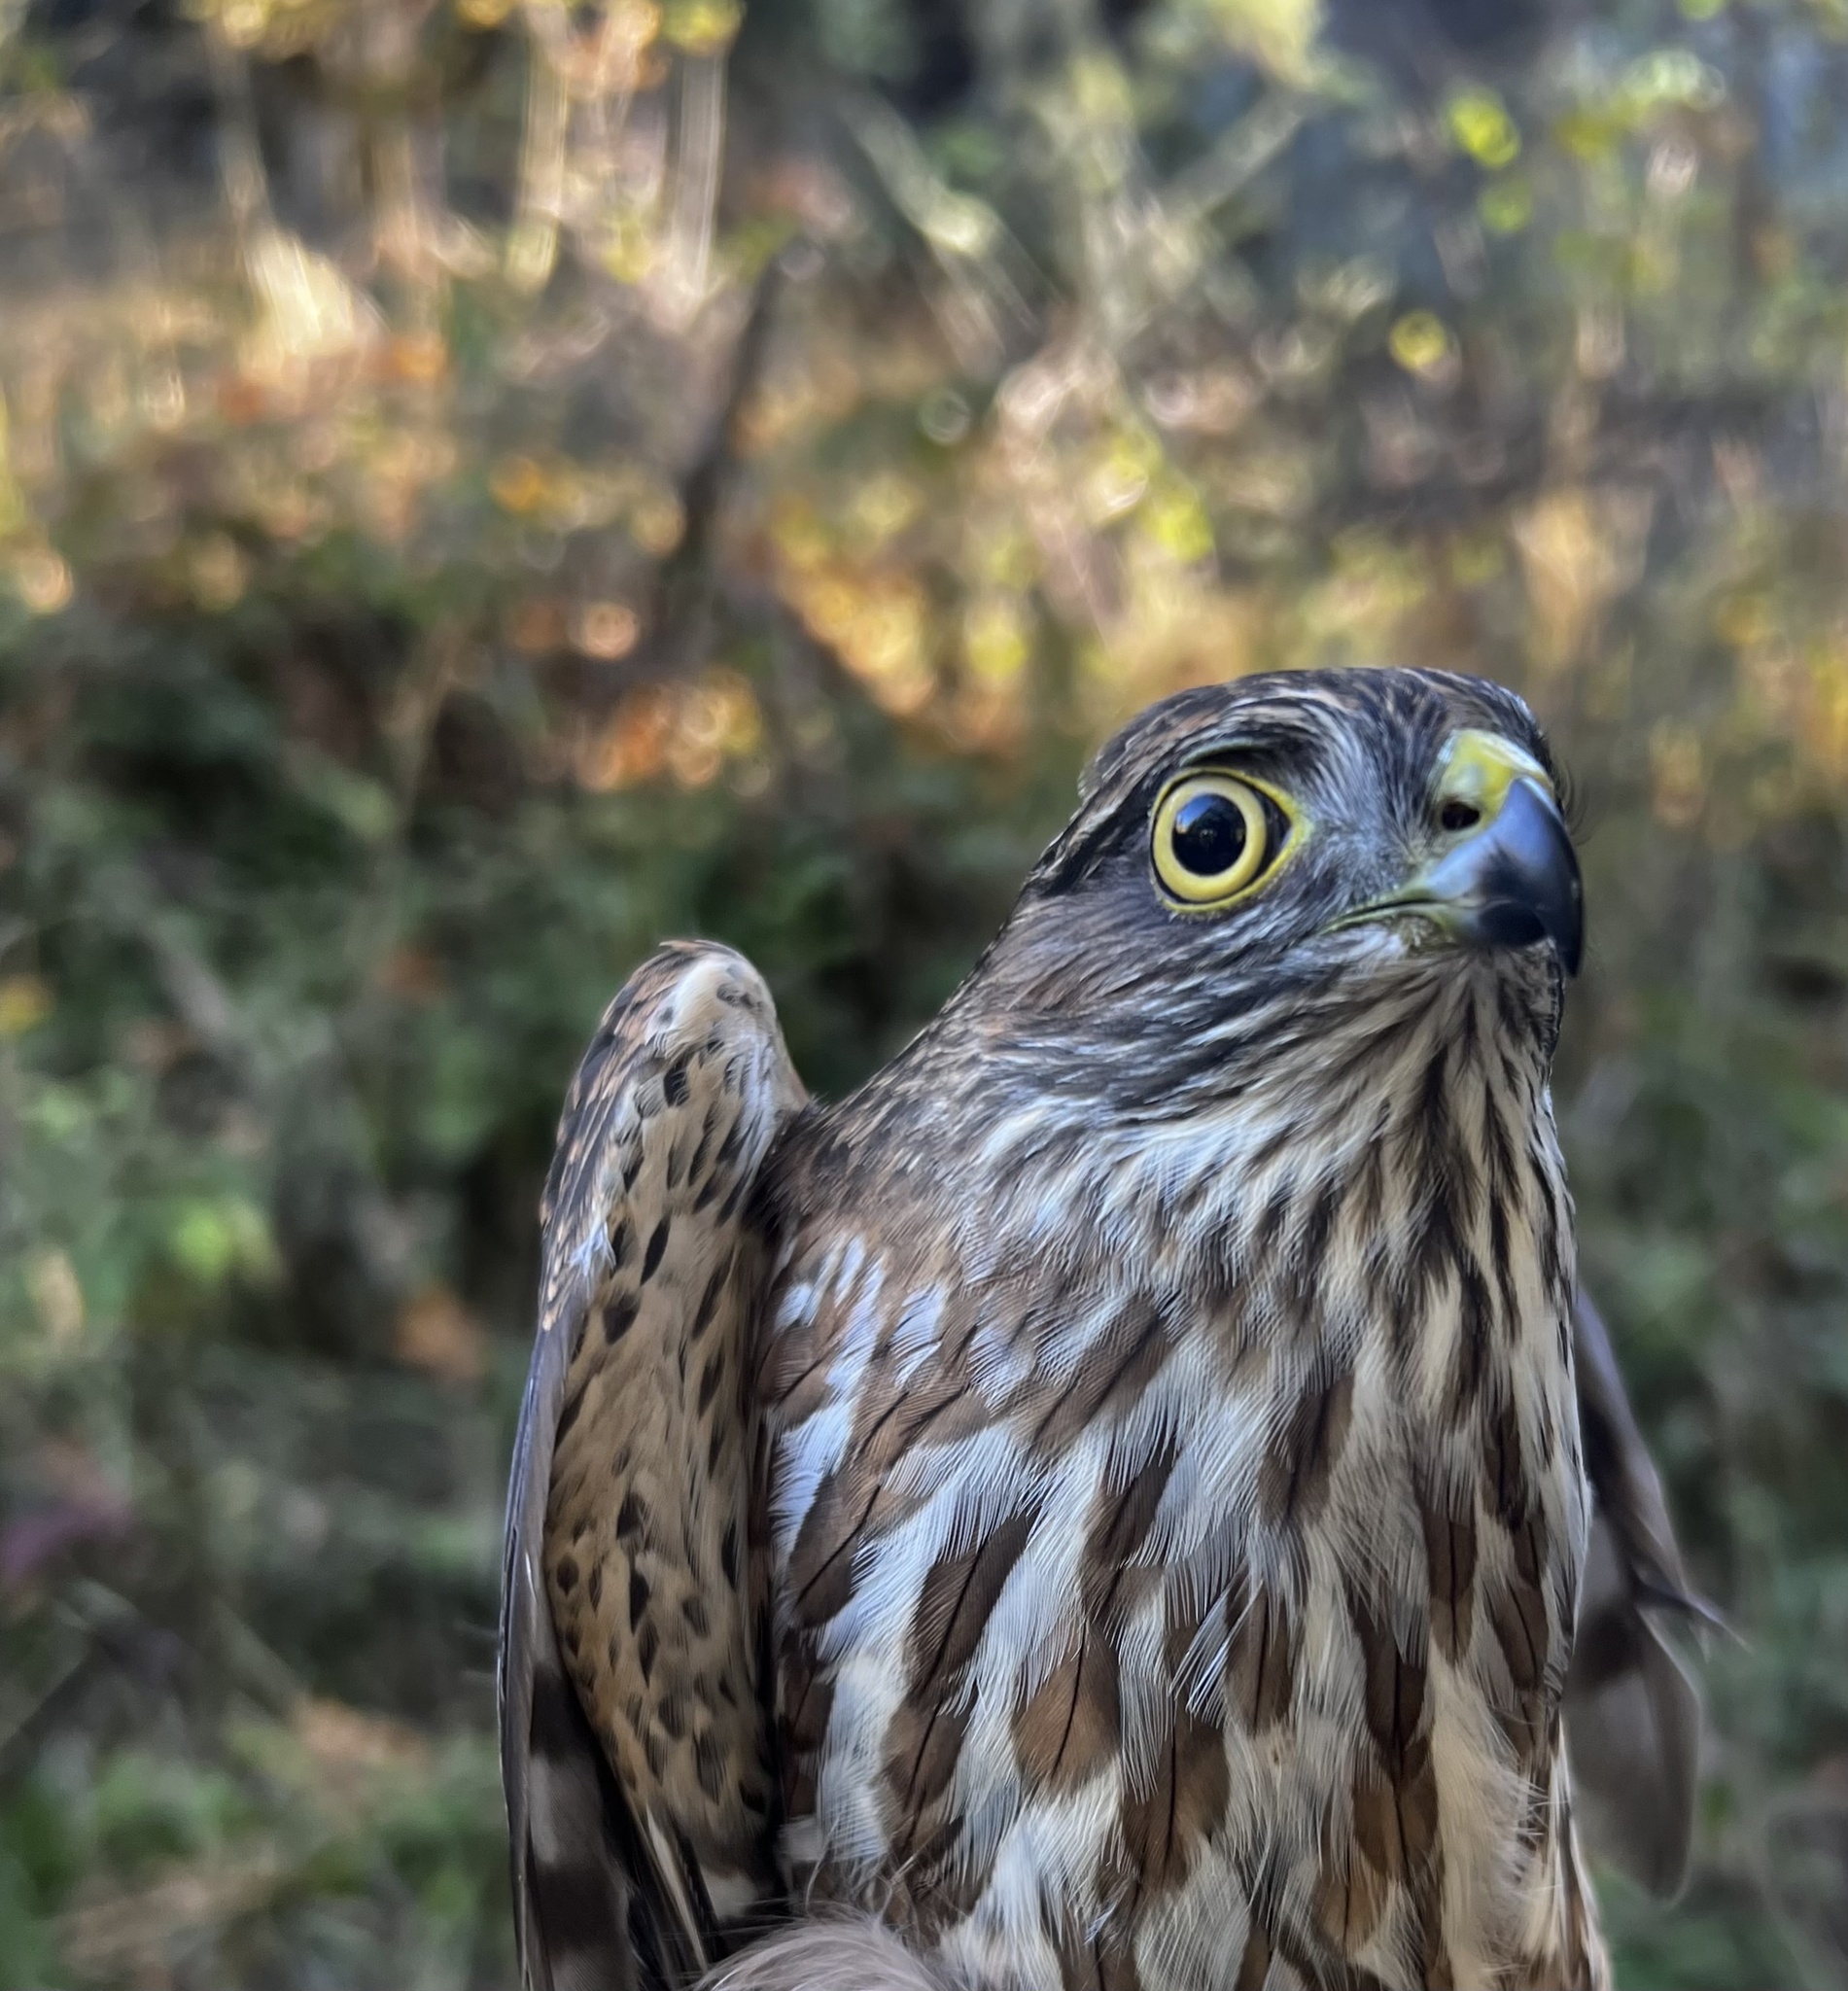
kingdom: Animalia
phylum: Chordata
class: Aves
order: Accipitriformes
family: Accipitridae
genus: Accipiter
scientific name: Accipiter striatus
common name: Sharp-shinned hawk
